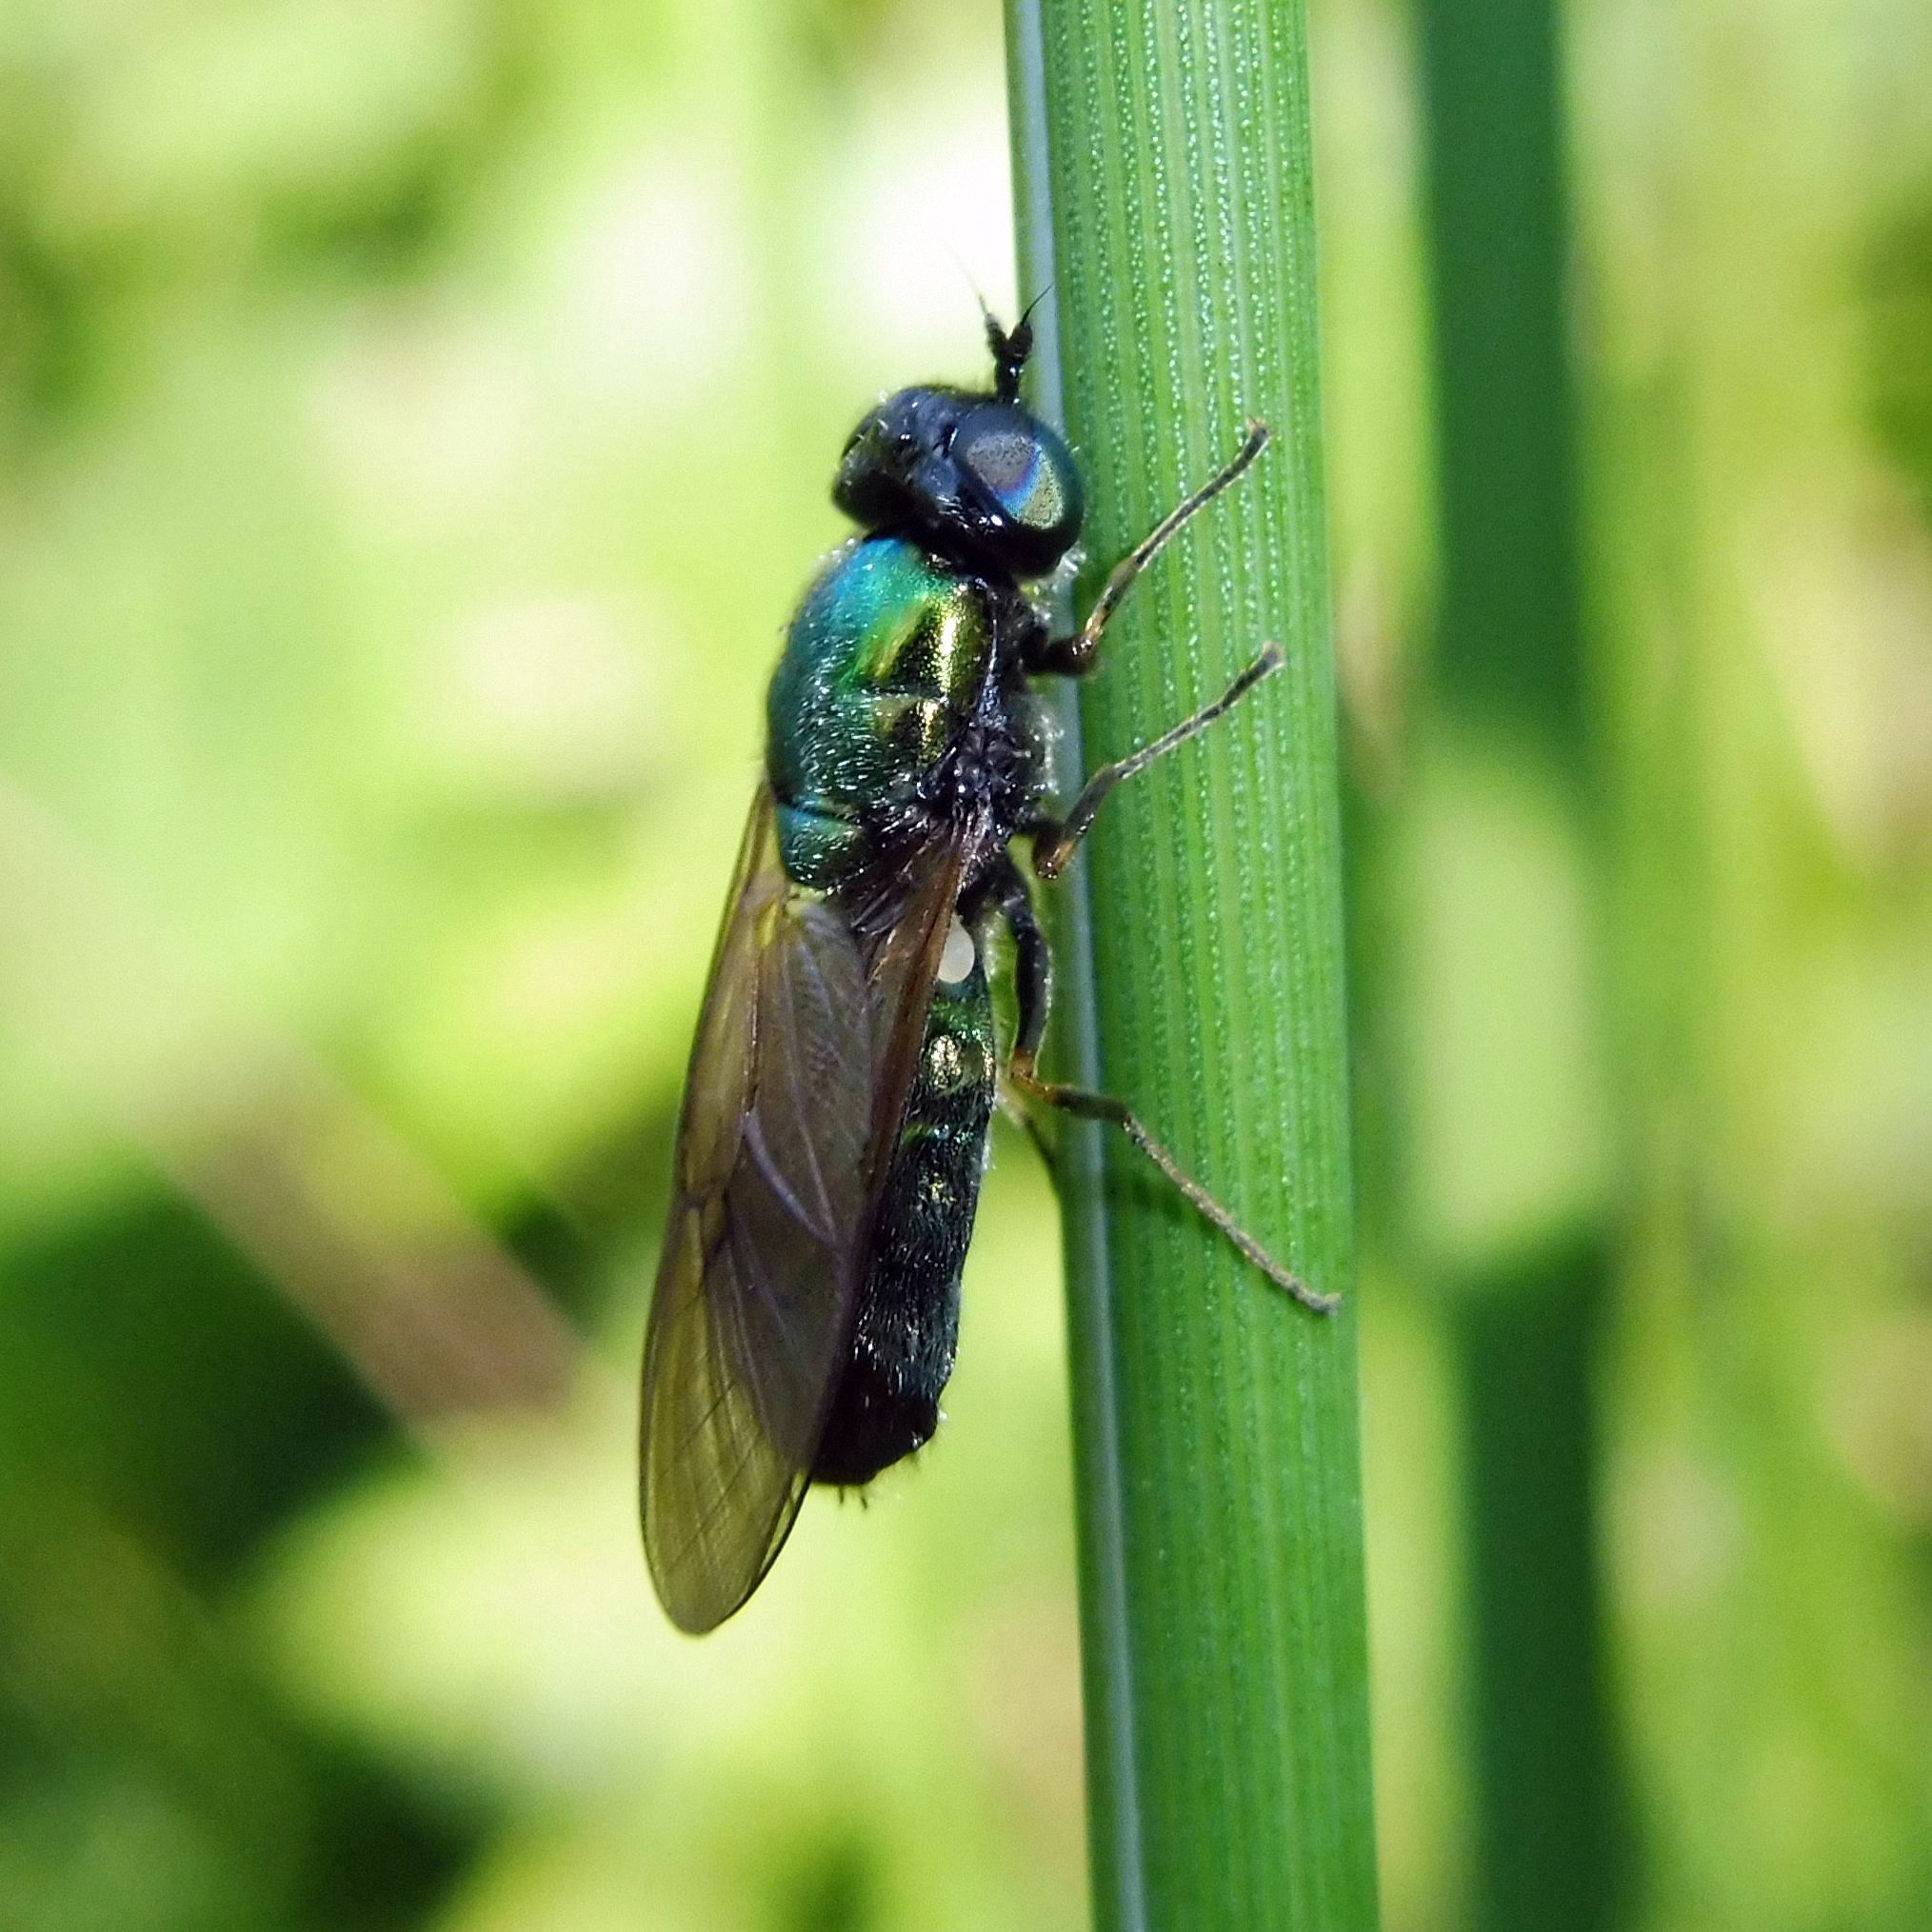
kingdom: Animalia
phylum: Arthropoda
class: Insecta
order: Diptera
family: Stratiomyidae
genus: Chloromyia
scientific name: Chloromyia formosa
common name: Soldier fly
